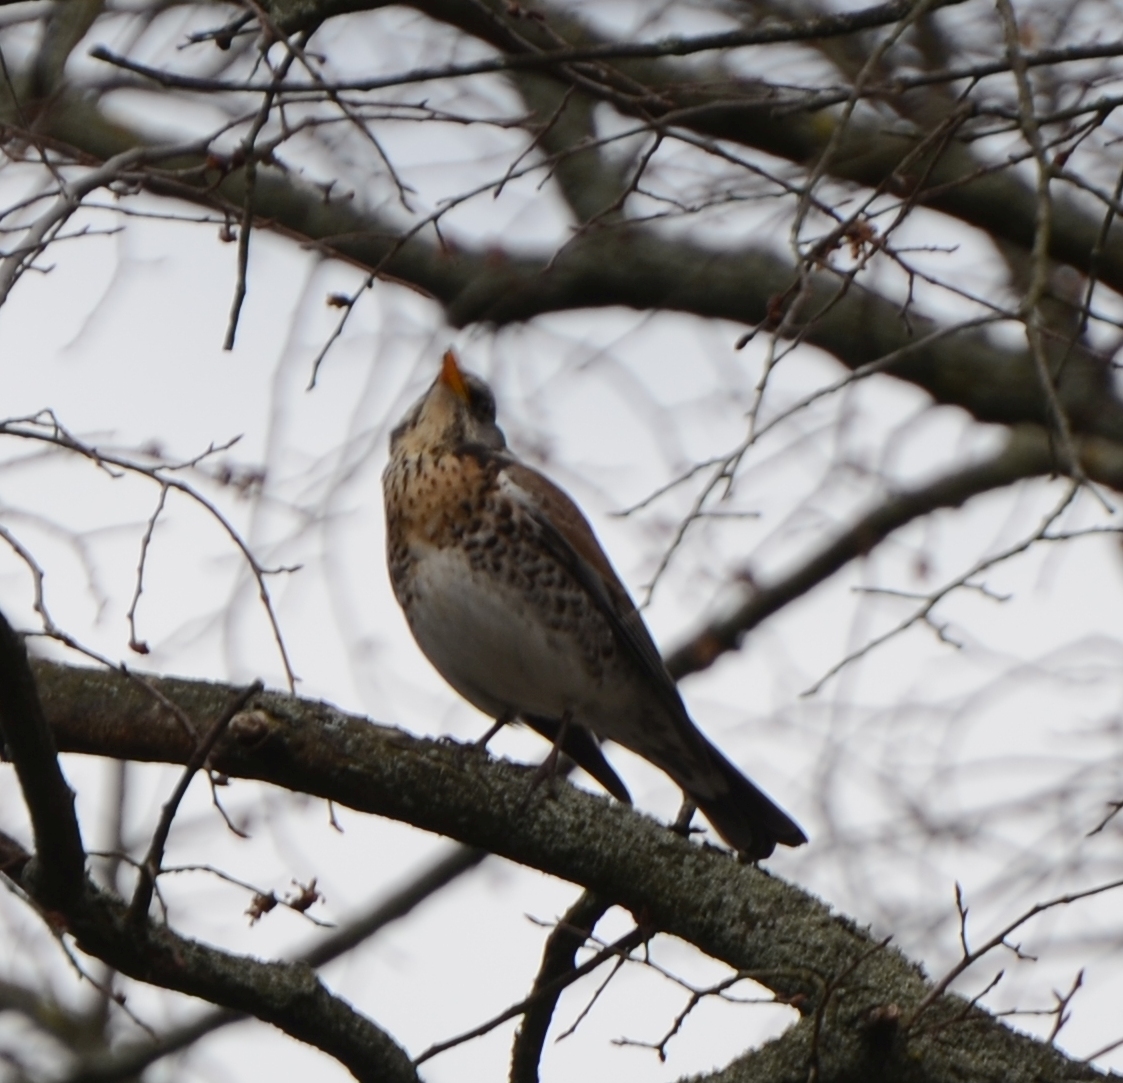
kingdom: Animalia
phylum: Chordata
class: Aves
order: Passeriformes
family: Turdidae
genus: Turdus
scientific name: Turdus pilaris
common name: Fieldfare
